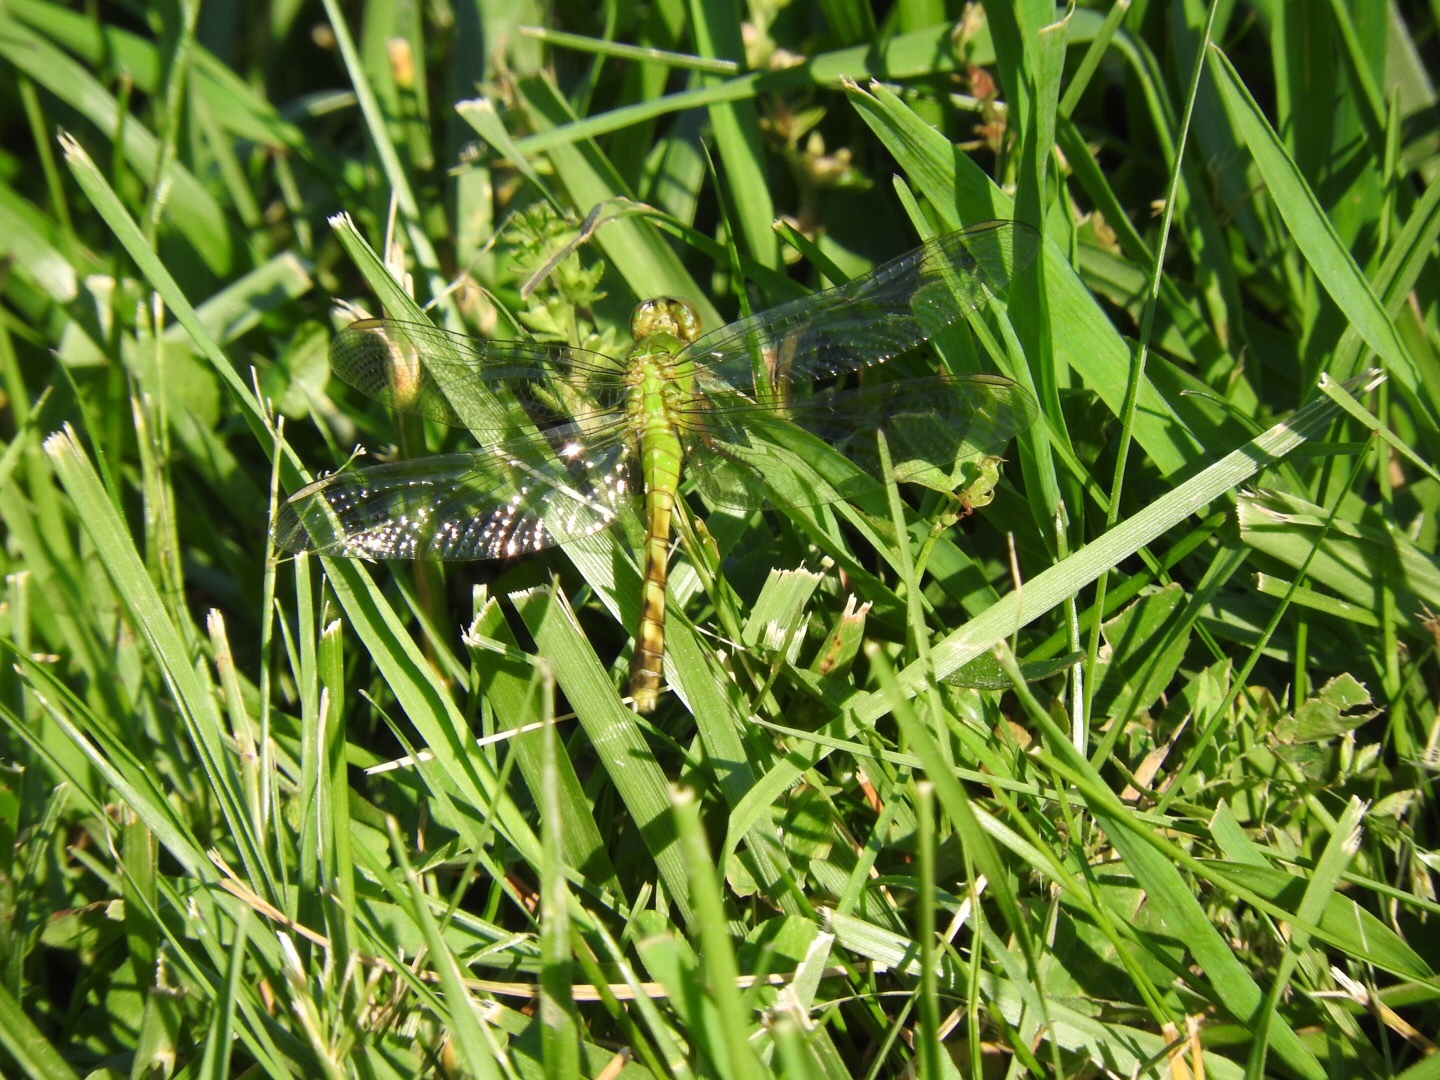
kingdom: Animalia
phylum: Arthropoda
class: Insecta
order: Odonata
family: Libellulidae
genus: Erythemis
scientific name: Erythemis simplicicollis
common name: Eastern pondhawk
